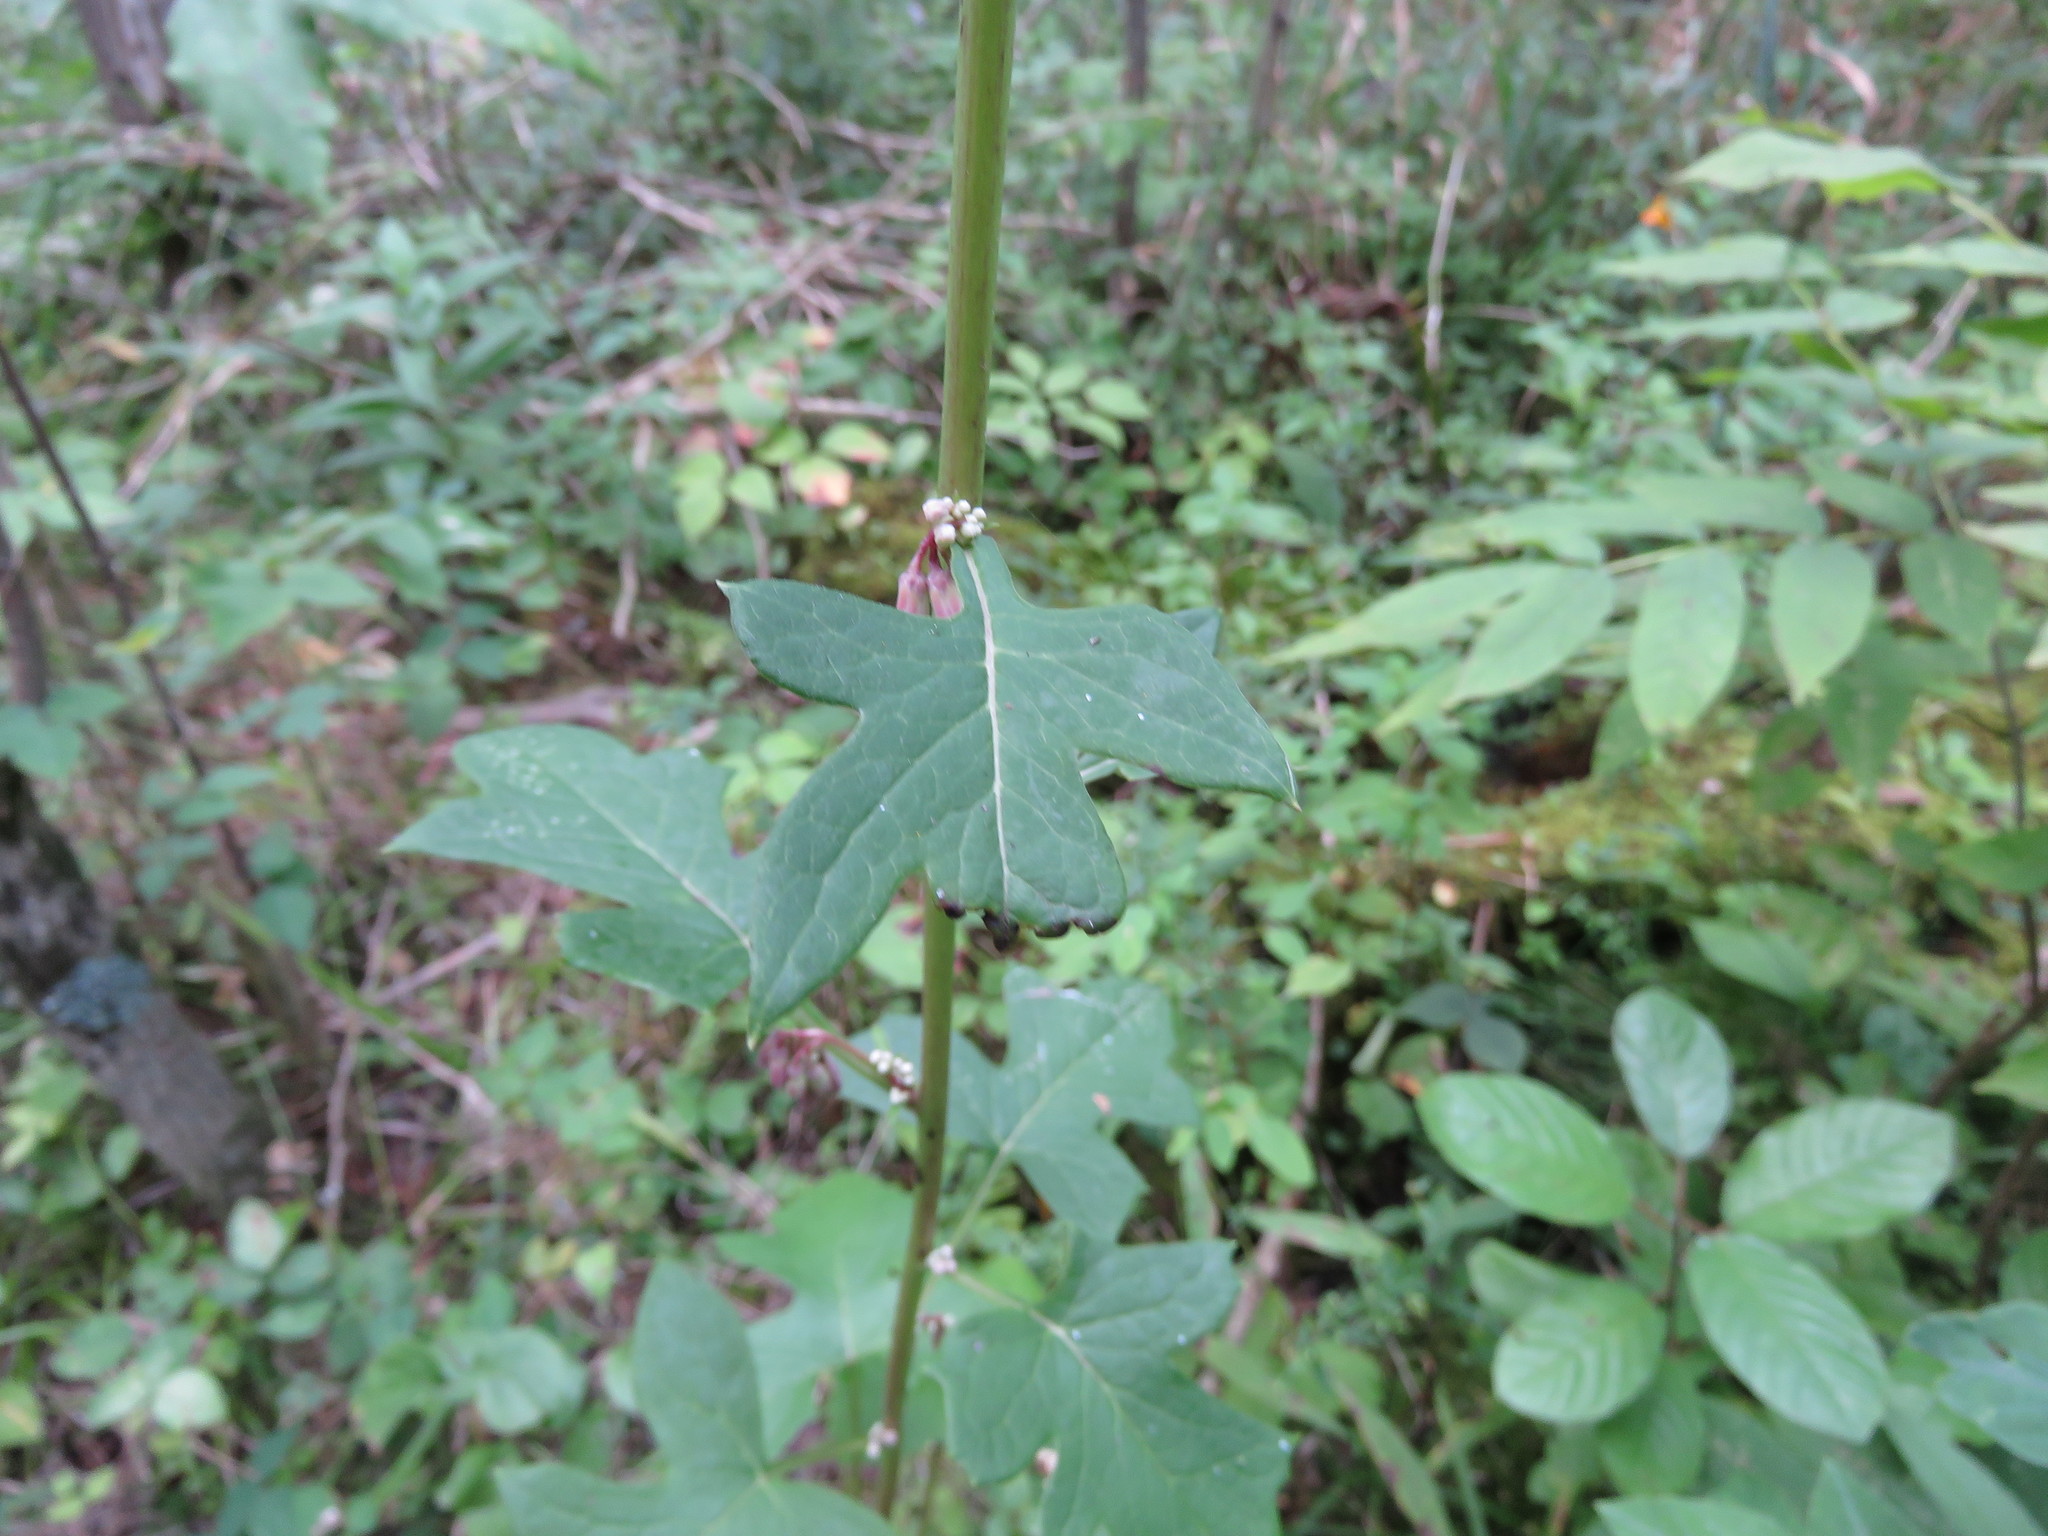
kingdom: Plantae
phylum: Tracheophyta
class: Magnoliopsida
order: Asterales
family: Asteraceae
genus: Nabalus
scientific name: Nabalus albus
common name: White rattlesnakeroot
